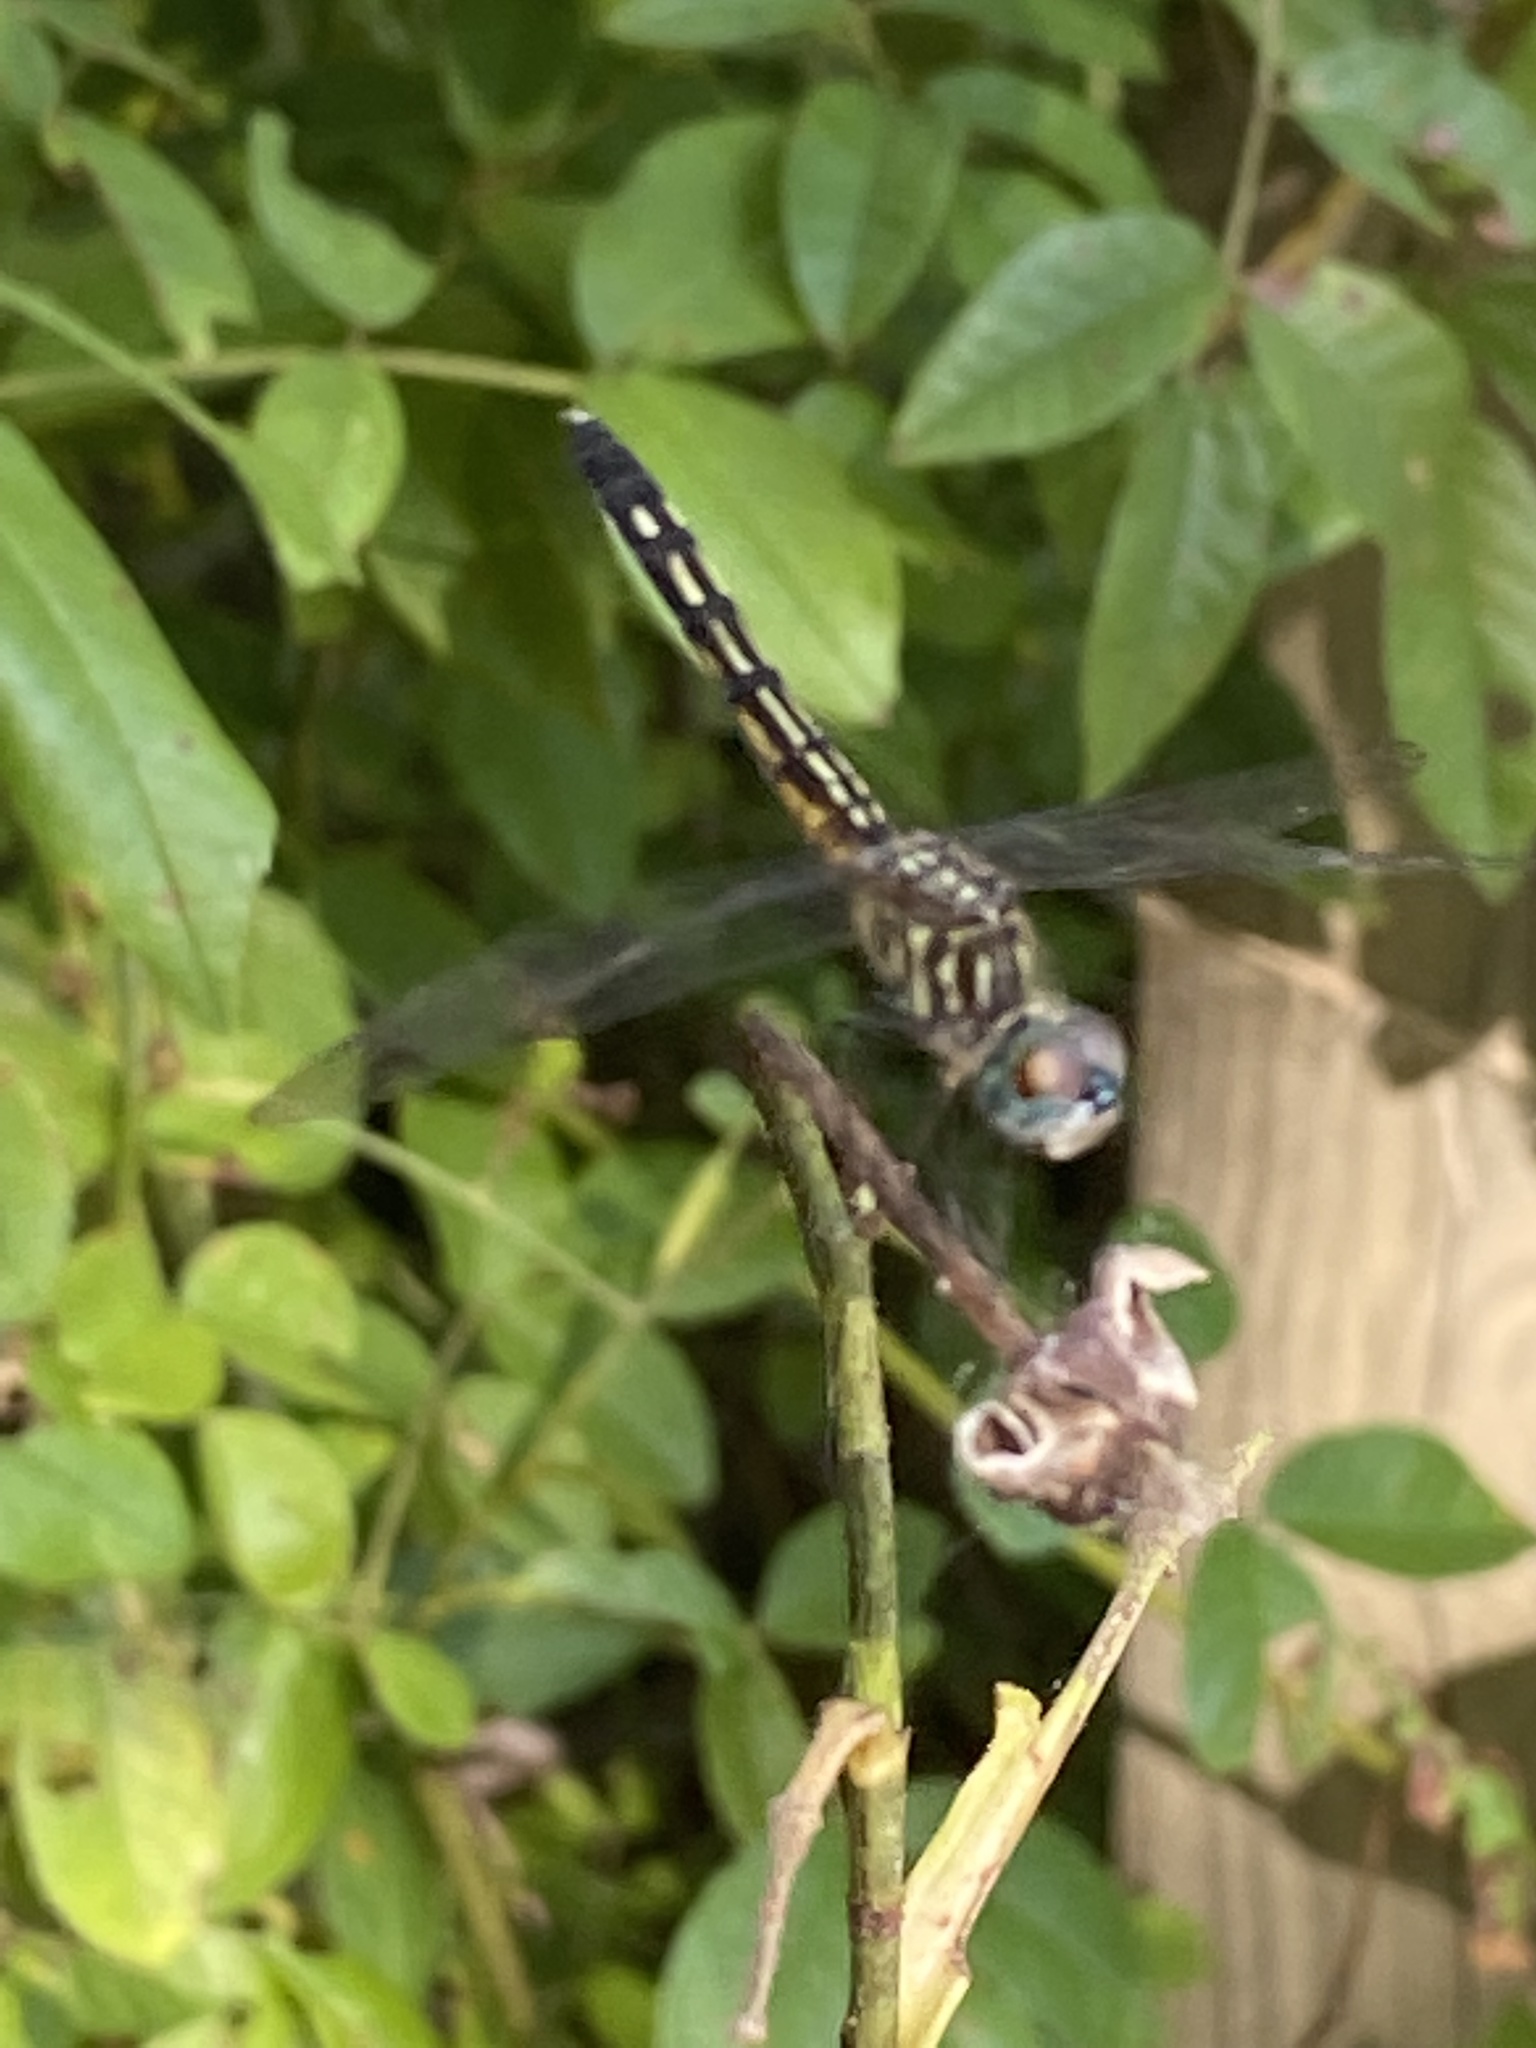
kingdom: Animalia
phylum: Arthropoda
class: Insecta
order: Odonata
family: Libellulidae
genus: Pachydiplax
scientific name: Pachydiplax longipennis
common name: Blue dasher
